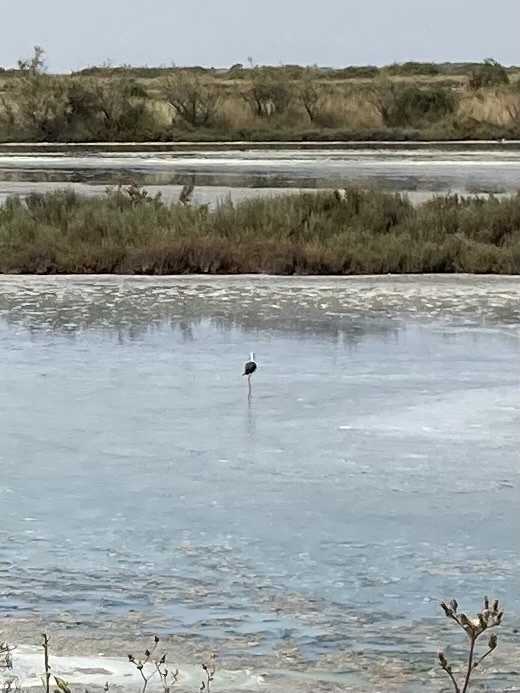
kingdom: Animalia
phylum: Chordata
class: Aves
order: Charadriiformes
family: Recurvirostridae
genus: Himantopus
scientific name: Himantopus himantopus
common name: Black-winged stilt
